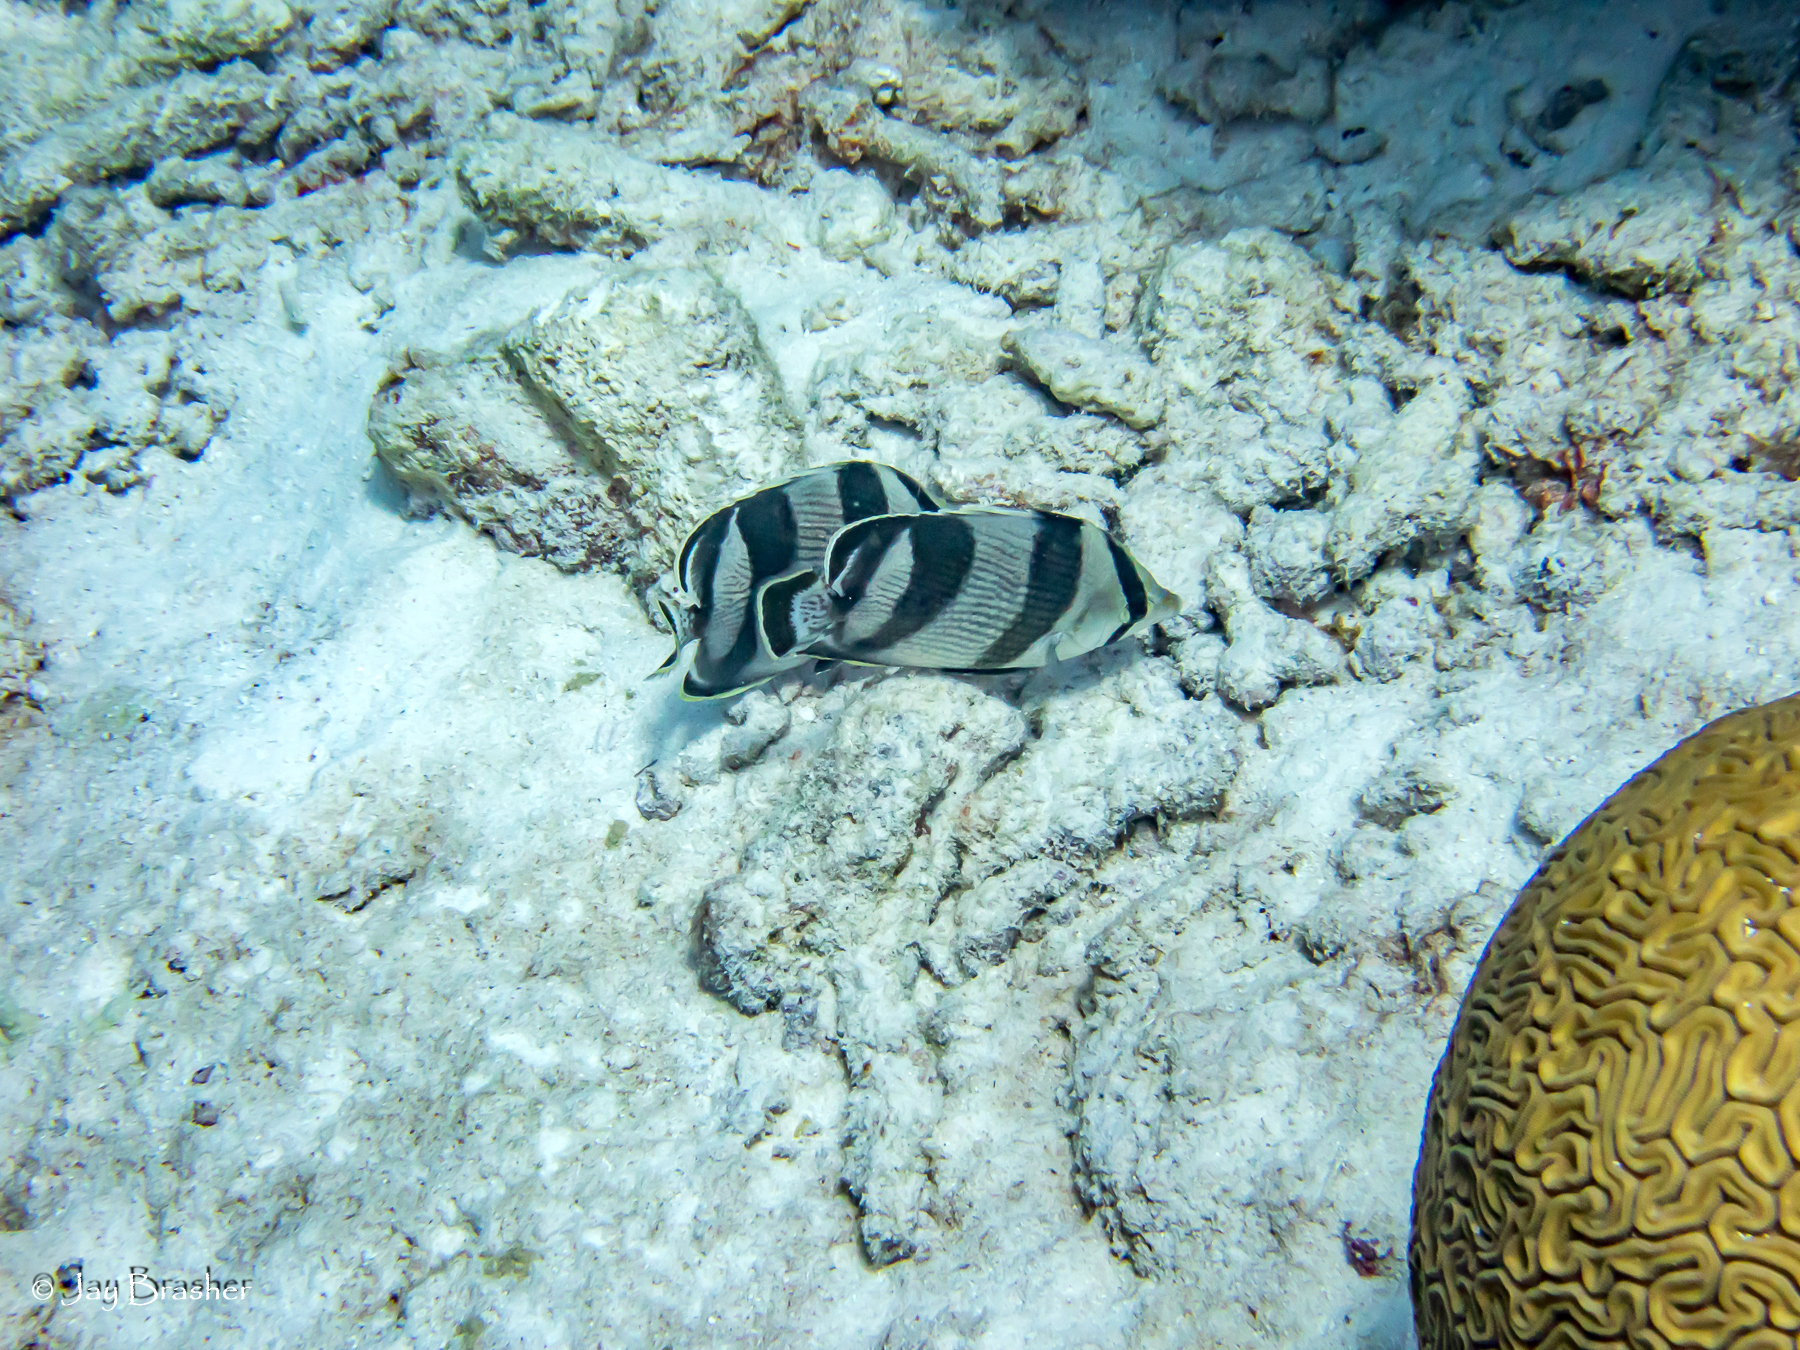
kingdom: Animalia
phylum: Chordata
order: Perciformes
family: Chaetodontidae
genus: Chaetodon
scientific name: Chaetodon striatus
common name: Banded butterflyfish
